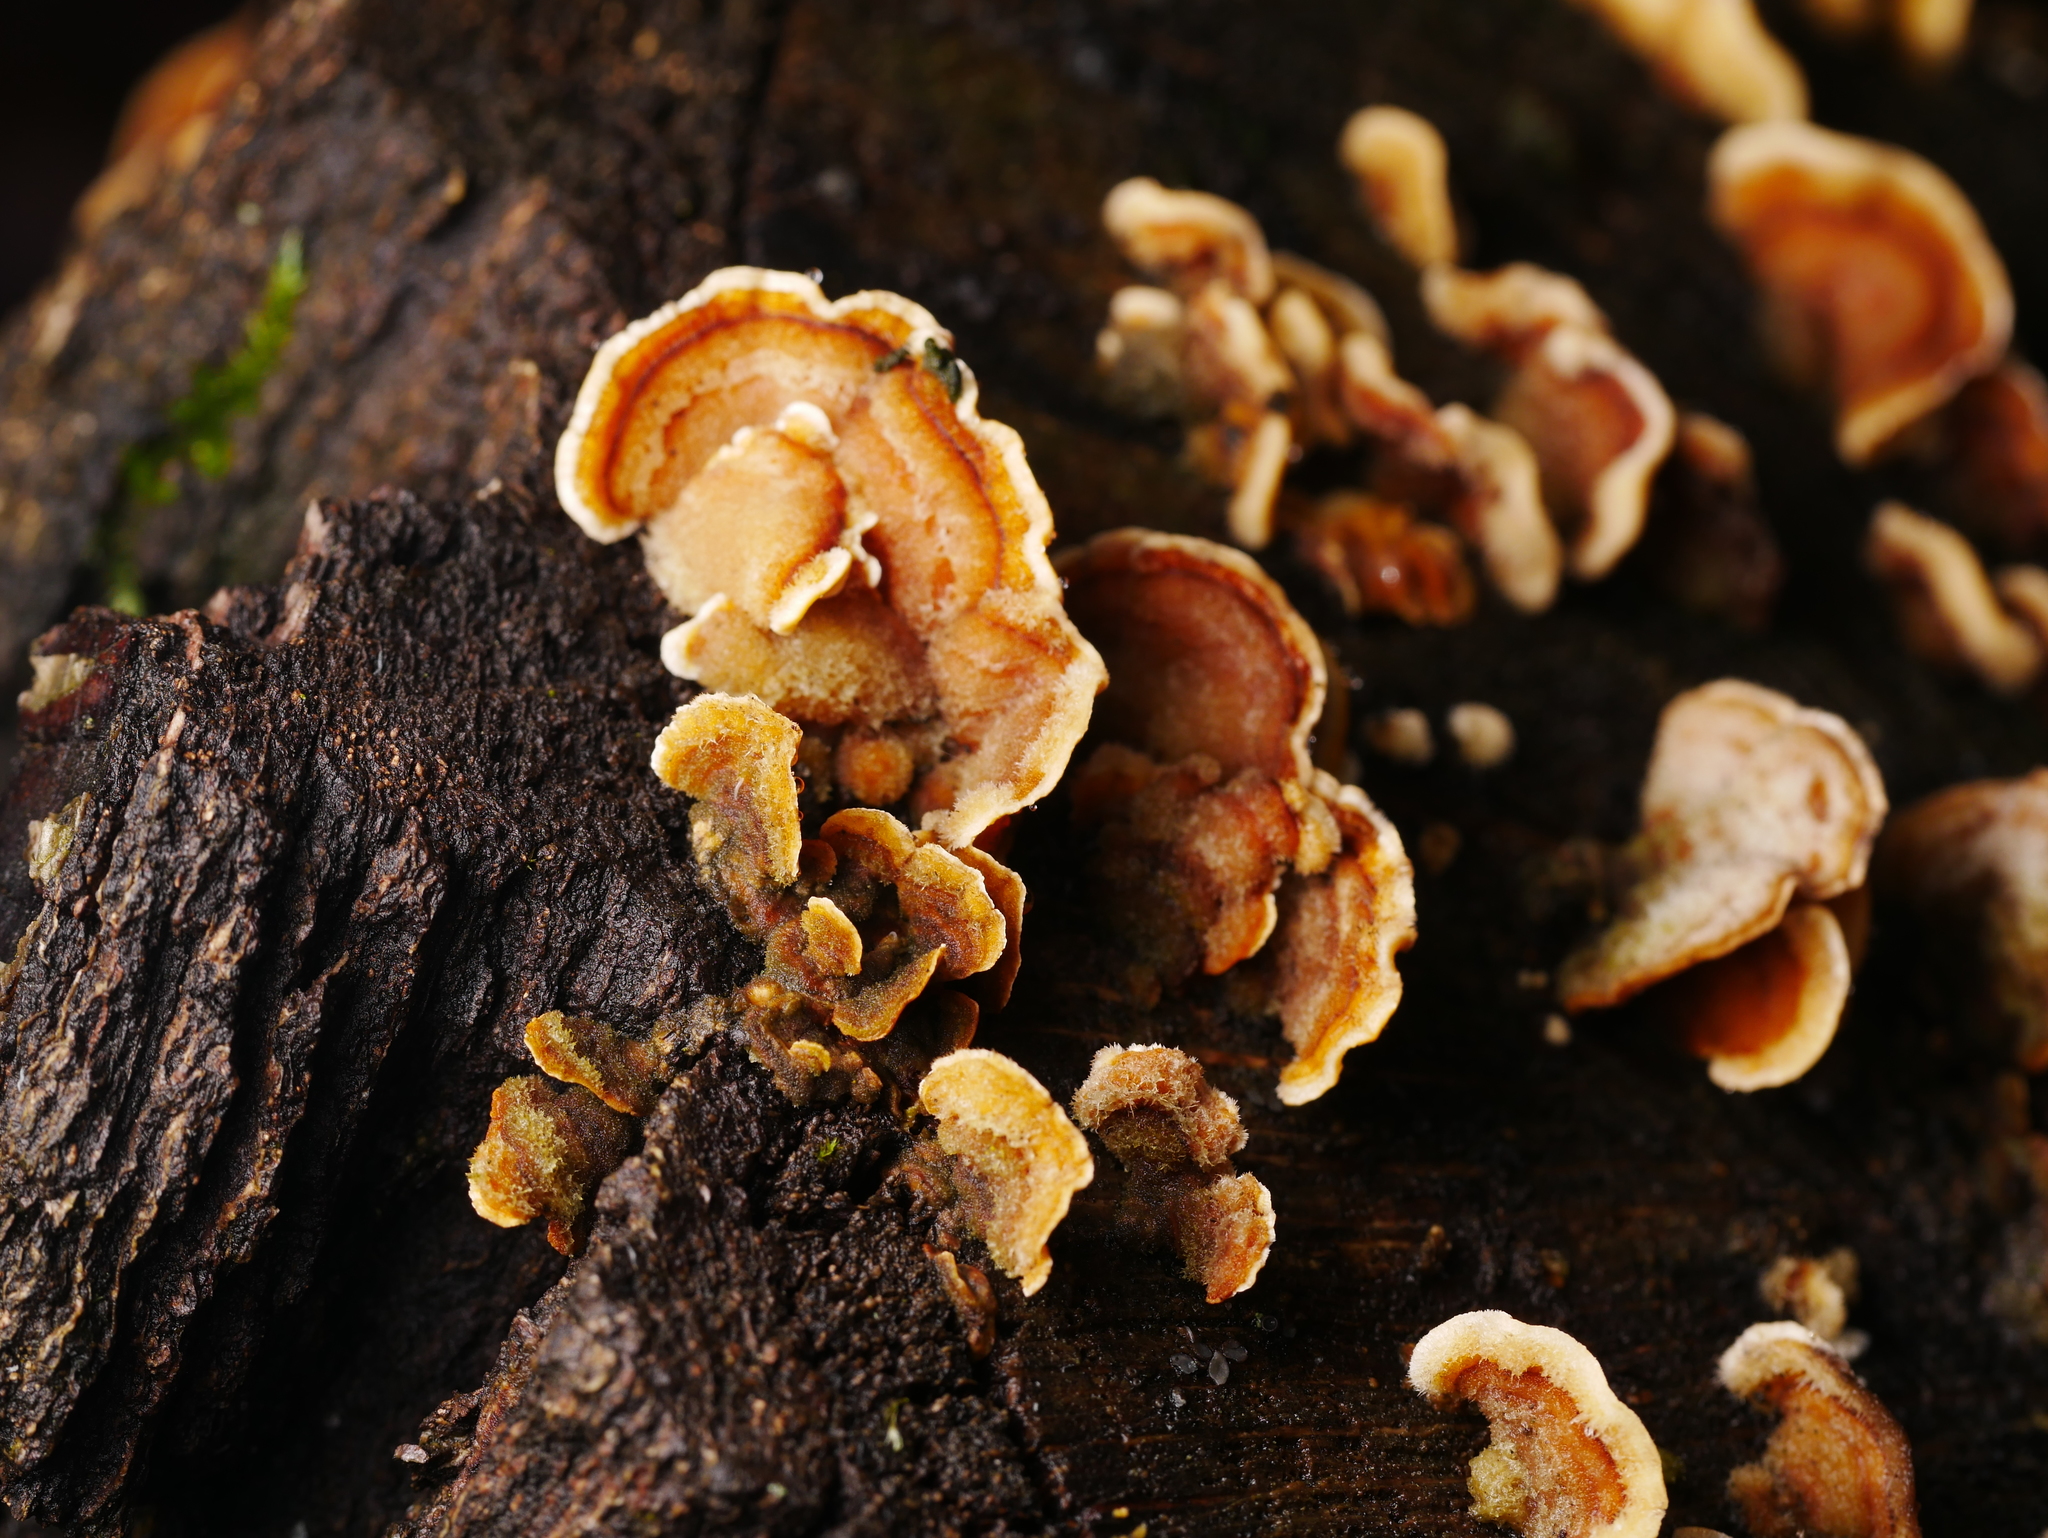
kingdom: Fungi
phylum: Basidiomycota
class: Agaricomycetes
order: Russulales
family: Stereaceae
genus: Stereum
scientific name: Stereum hirsutum
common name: Hairy curtain crust
